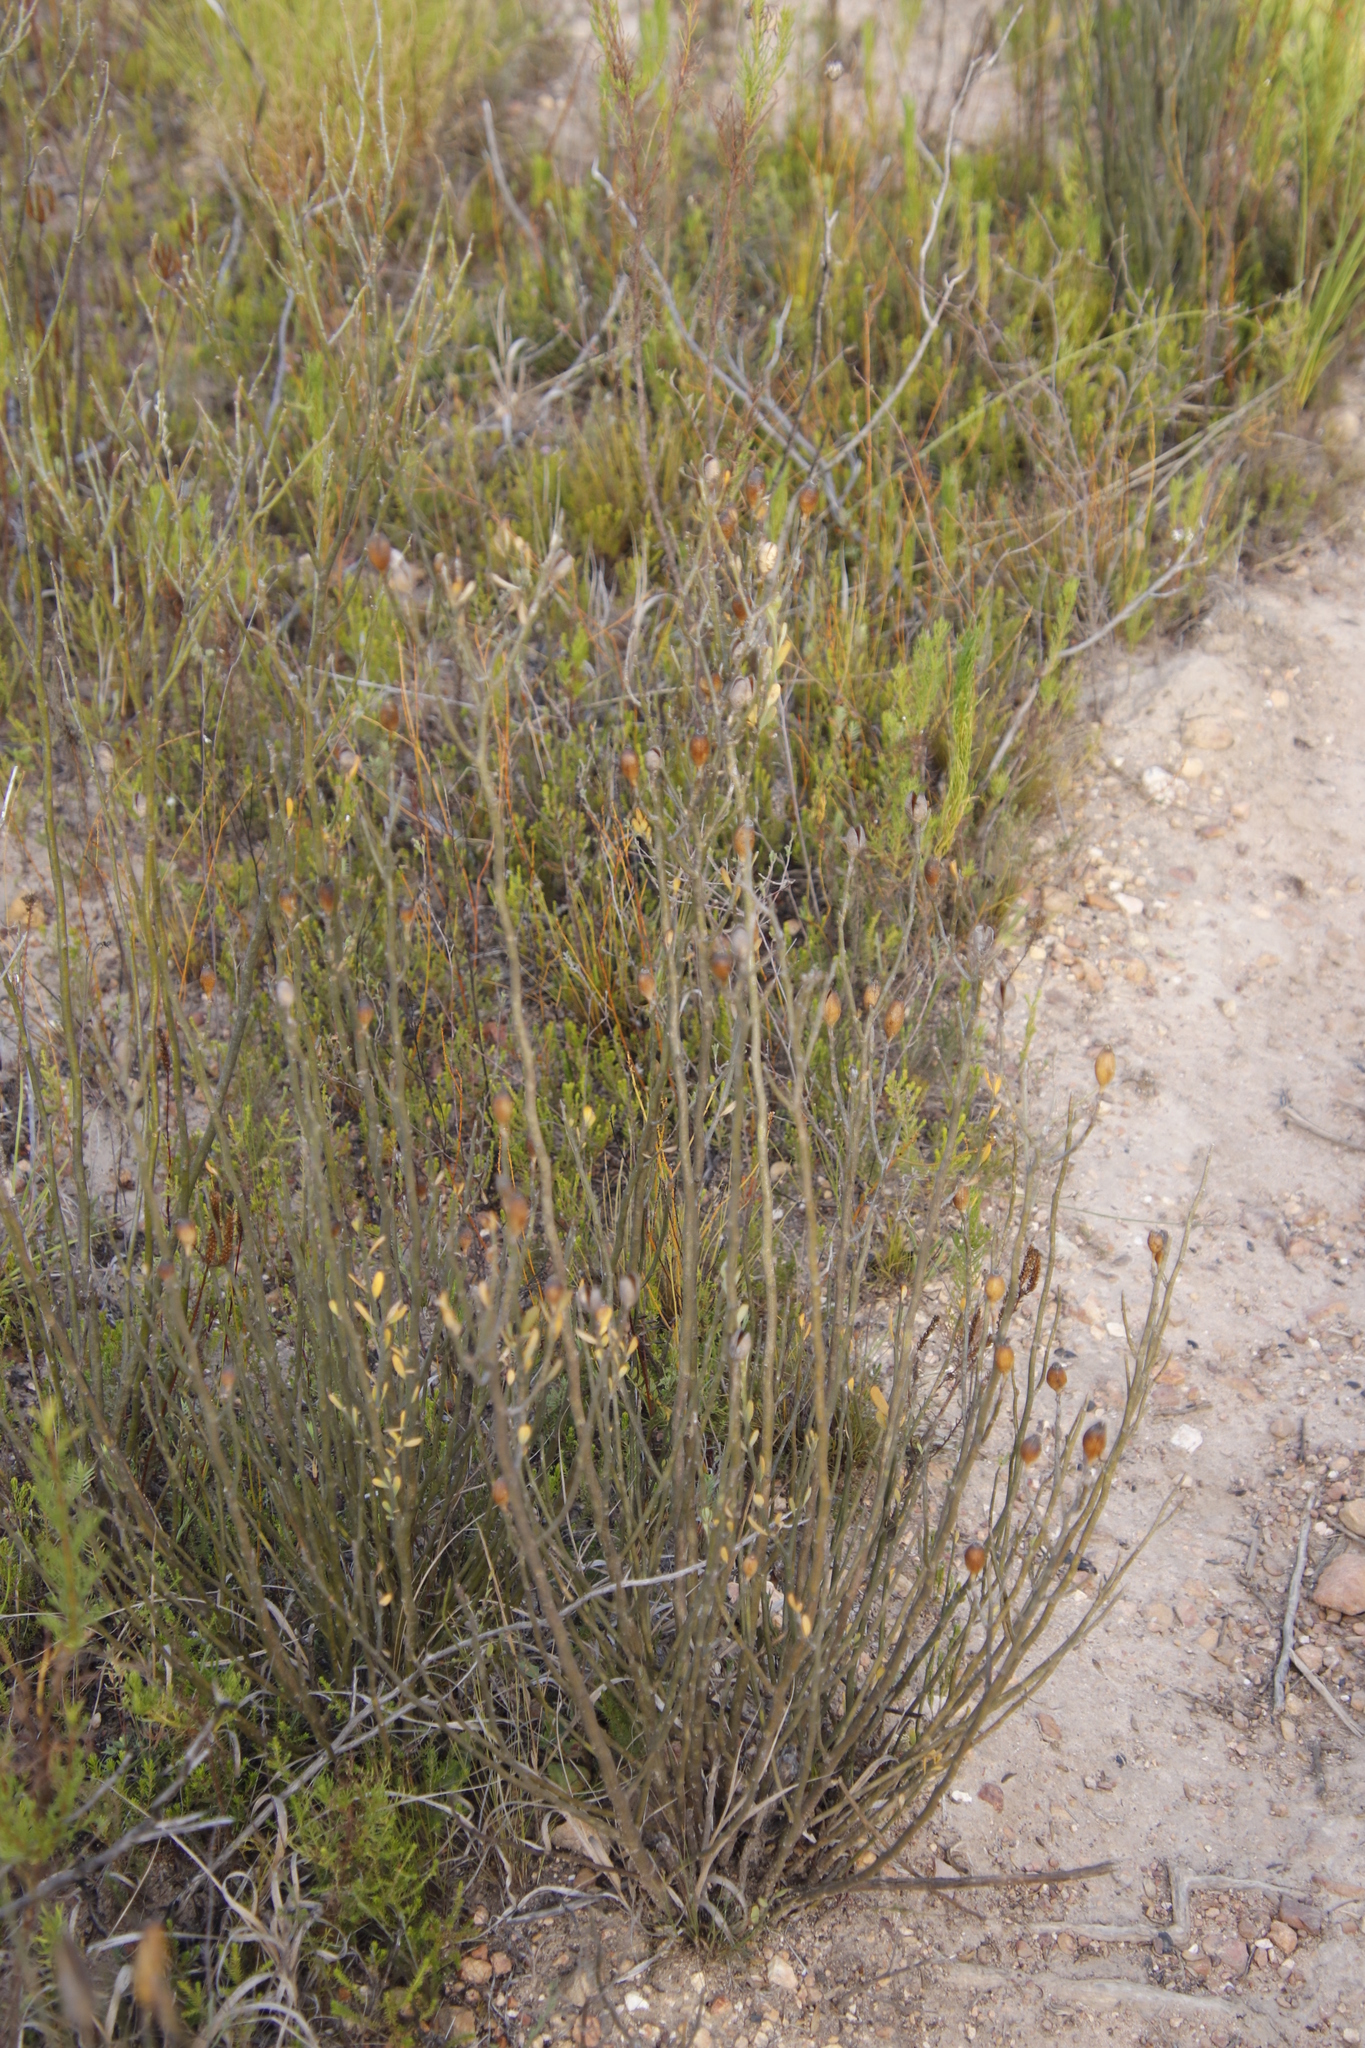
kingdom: Plantae
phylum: Tracheophyta
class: Magnoliopsida
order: Solanales
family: Montiniaceae
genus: Montinia
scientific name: Montinia caryophyllacea
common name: Wild clove-bush
